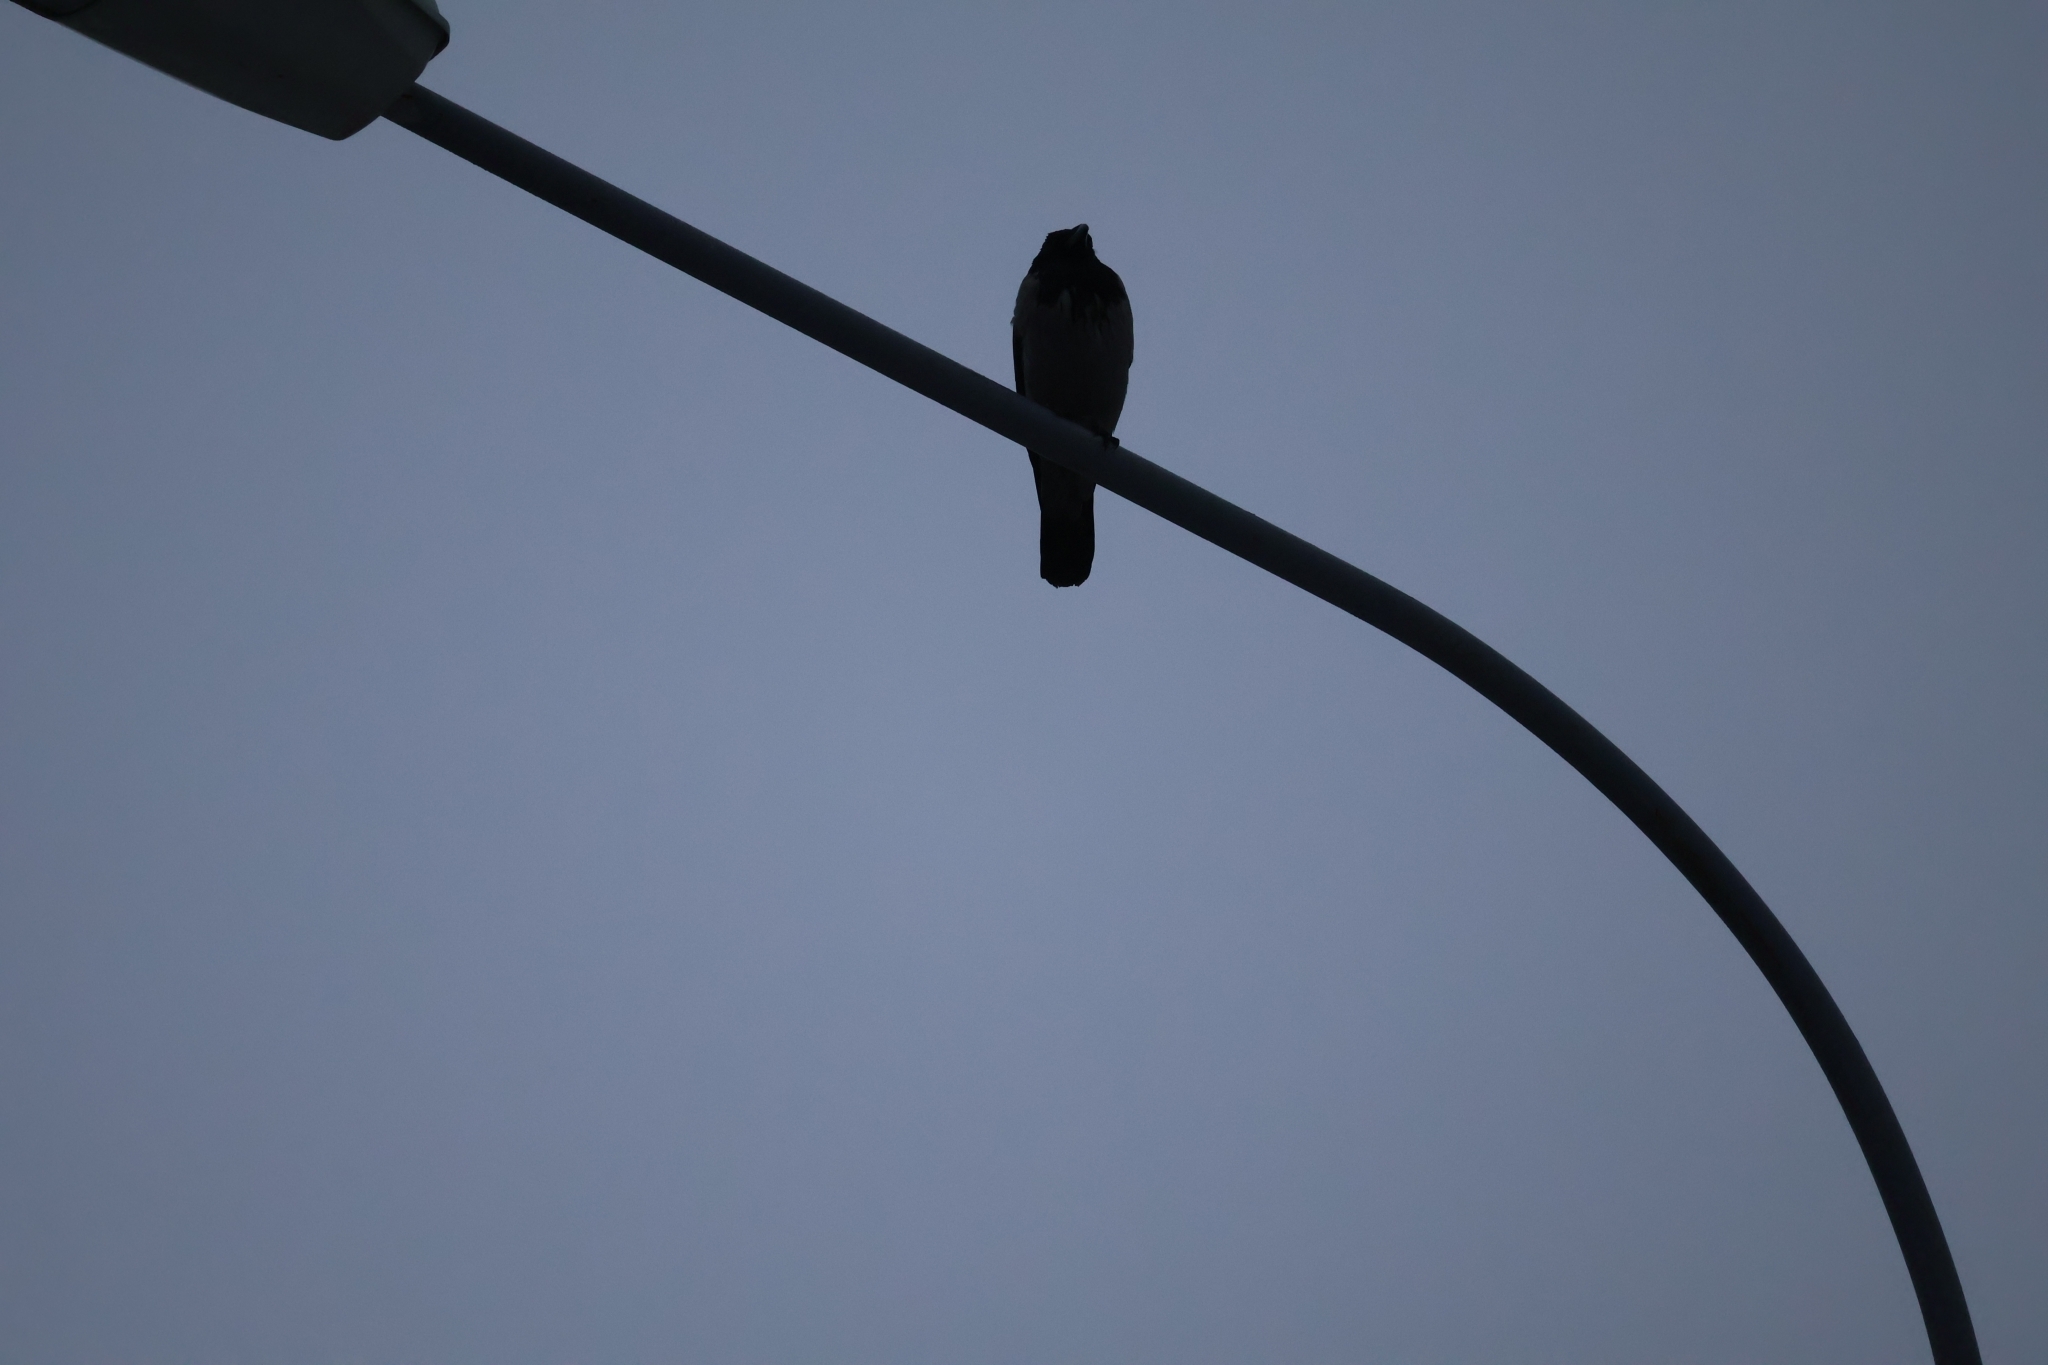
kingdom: Animalia
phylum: Chordata
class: Aves
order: Passeriformes
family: Corvidae
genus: Corvus
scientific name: Corvus cornix
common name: Hooded crow
